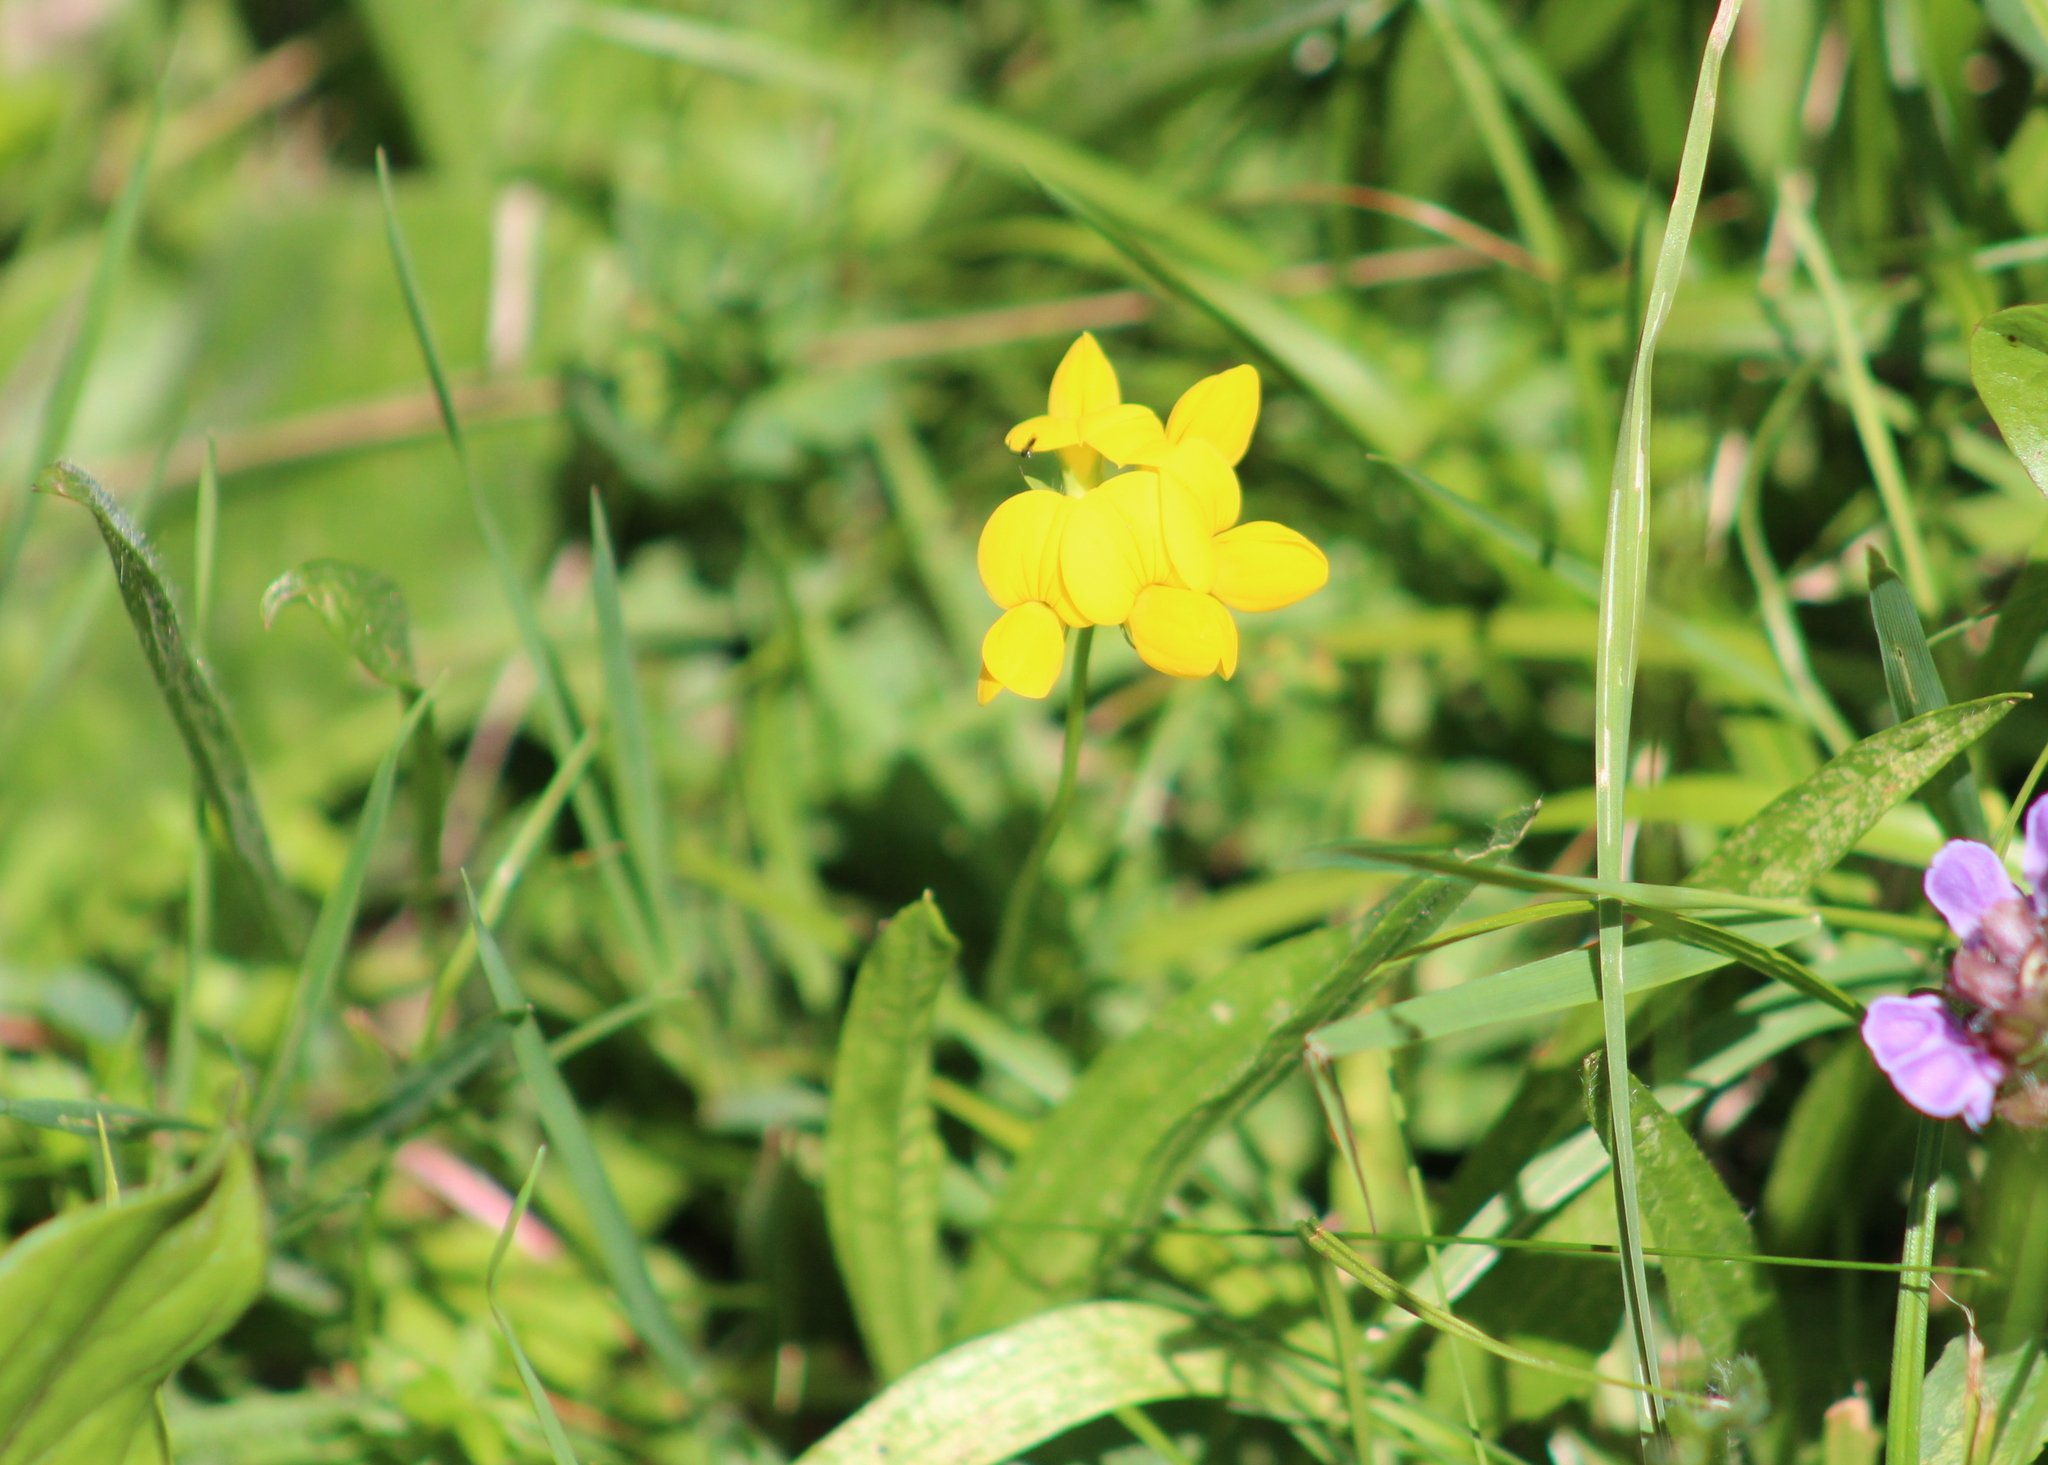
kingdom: Plantae
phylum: Tracheophyta
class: Magnoliopsida
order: Fabales
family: Fabaceae
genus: Lotus
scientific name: Lotus corniculatus
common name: Common bird's-foot-trefoil
